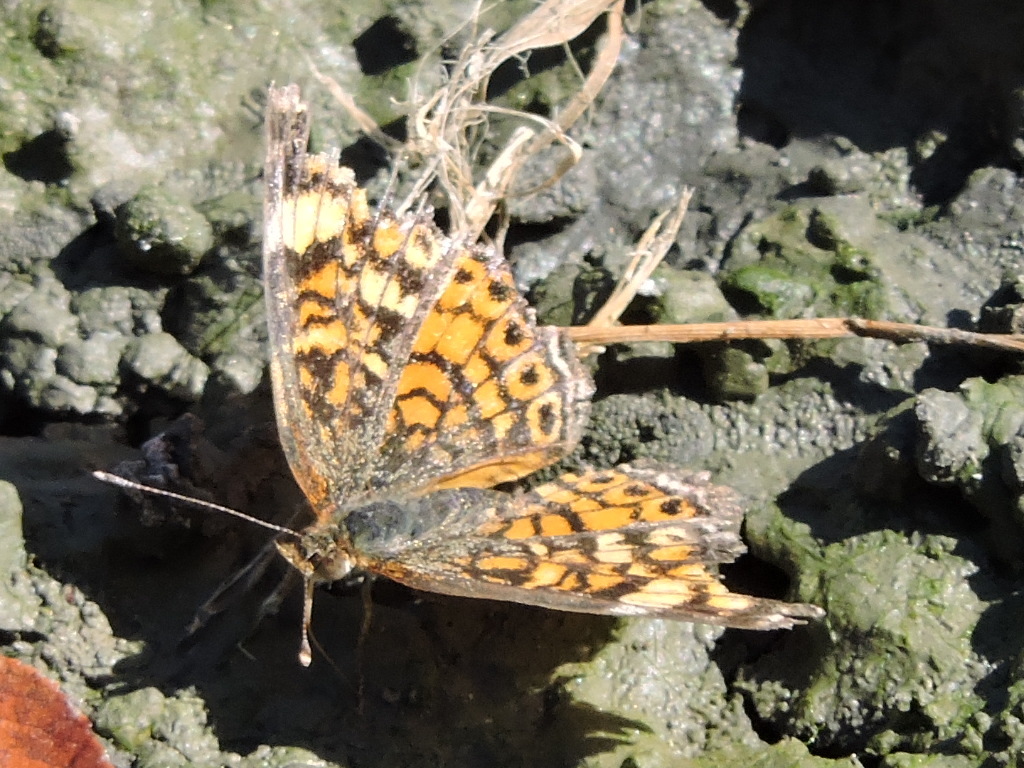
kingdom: Animalia
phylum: Arthropoda
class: Insecta
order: Lepidoptera
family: Nymphalidae
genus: Phyciodes
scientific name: Phyciodes phaon
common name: Phaon crescent
